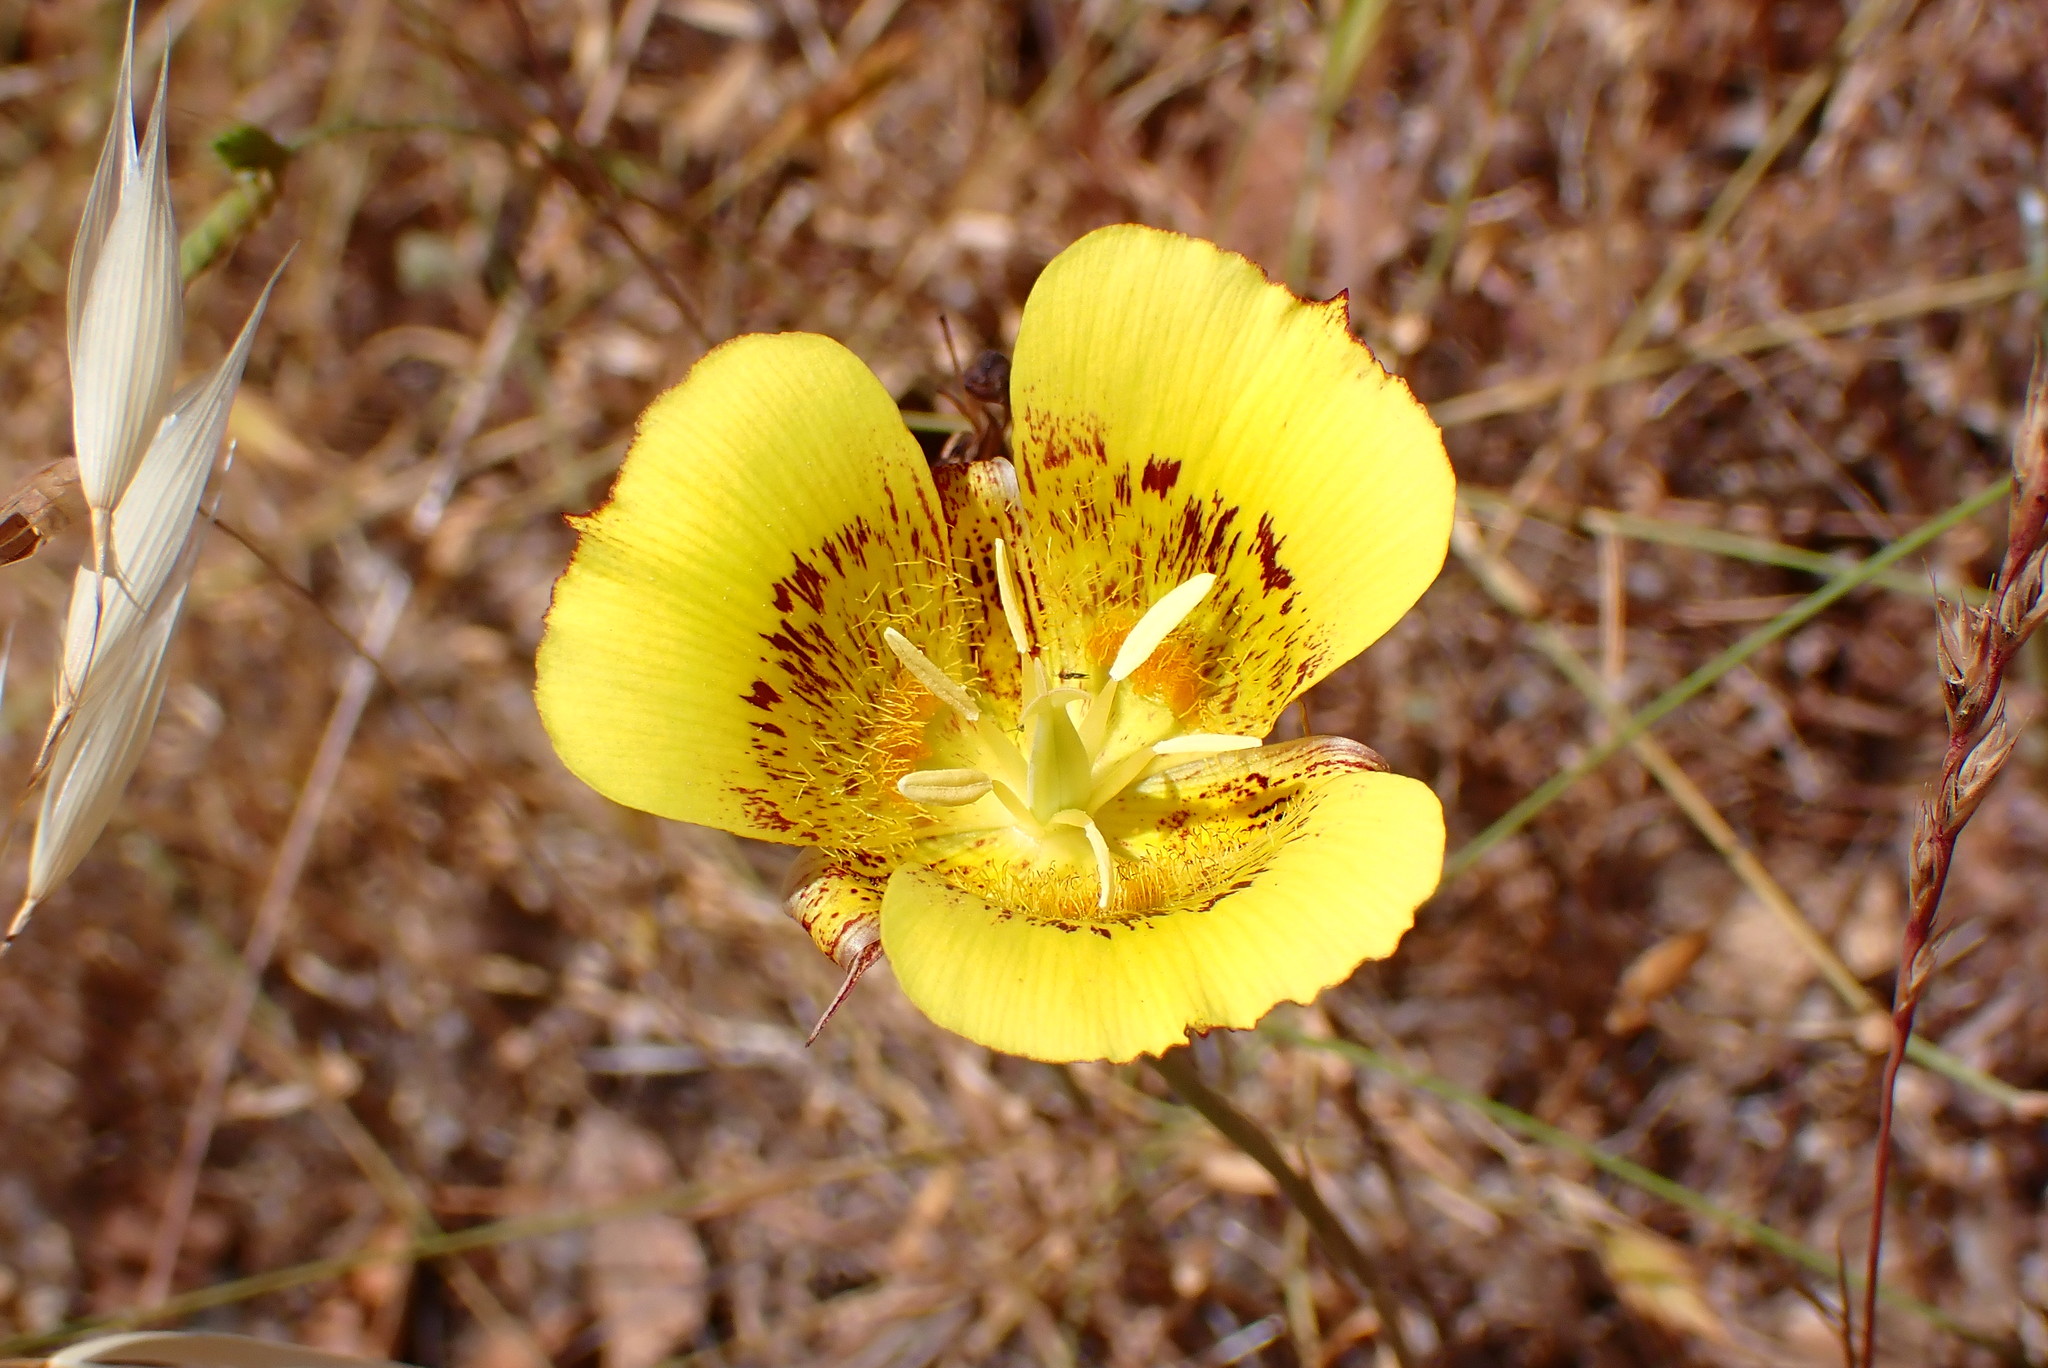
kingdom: Plantae
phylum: Tracheophyta
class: Liliopsida
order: Liliales
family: Liliaceae
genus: Calochortus
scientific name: Calochortus luteus
